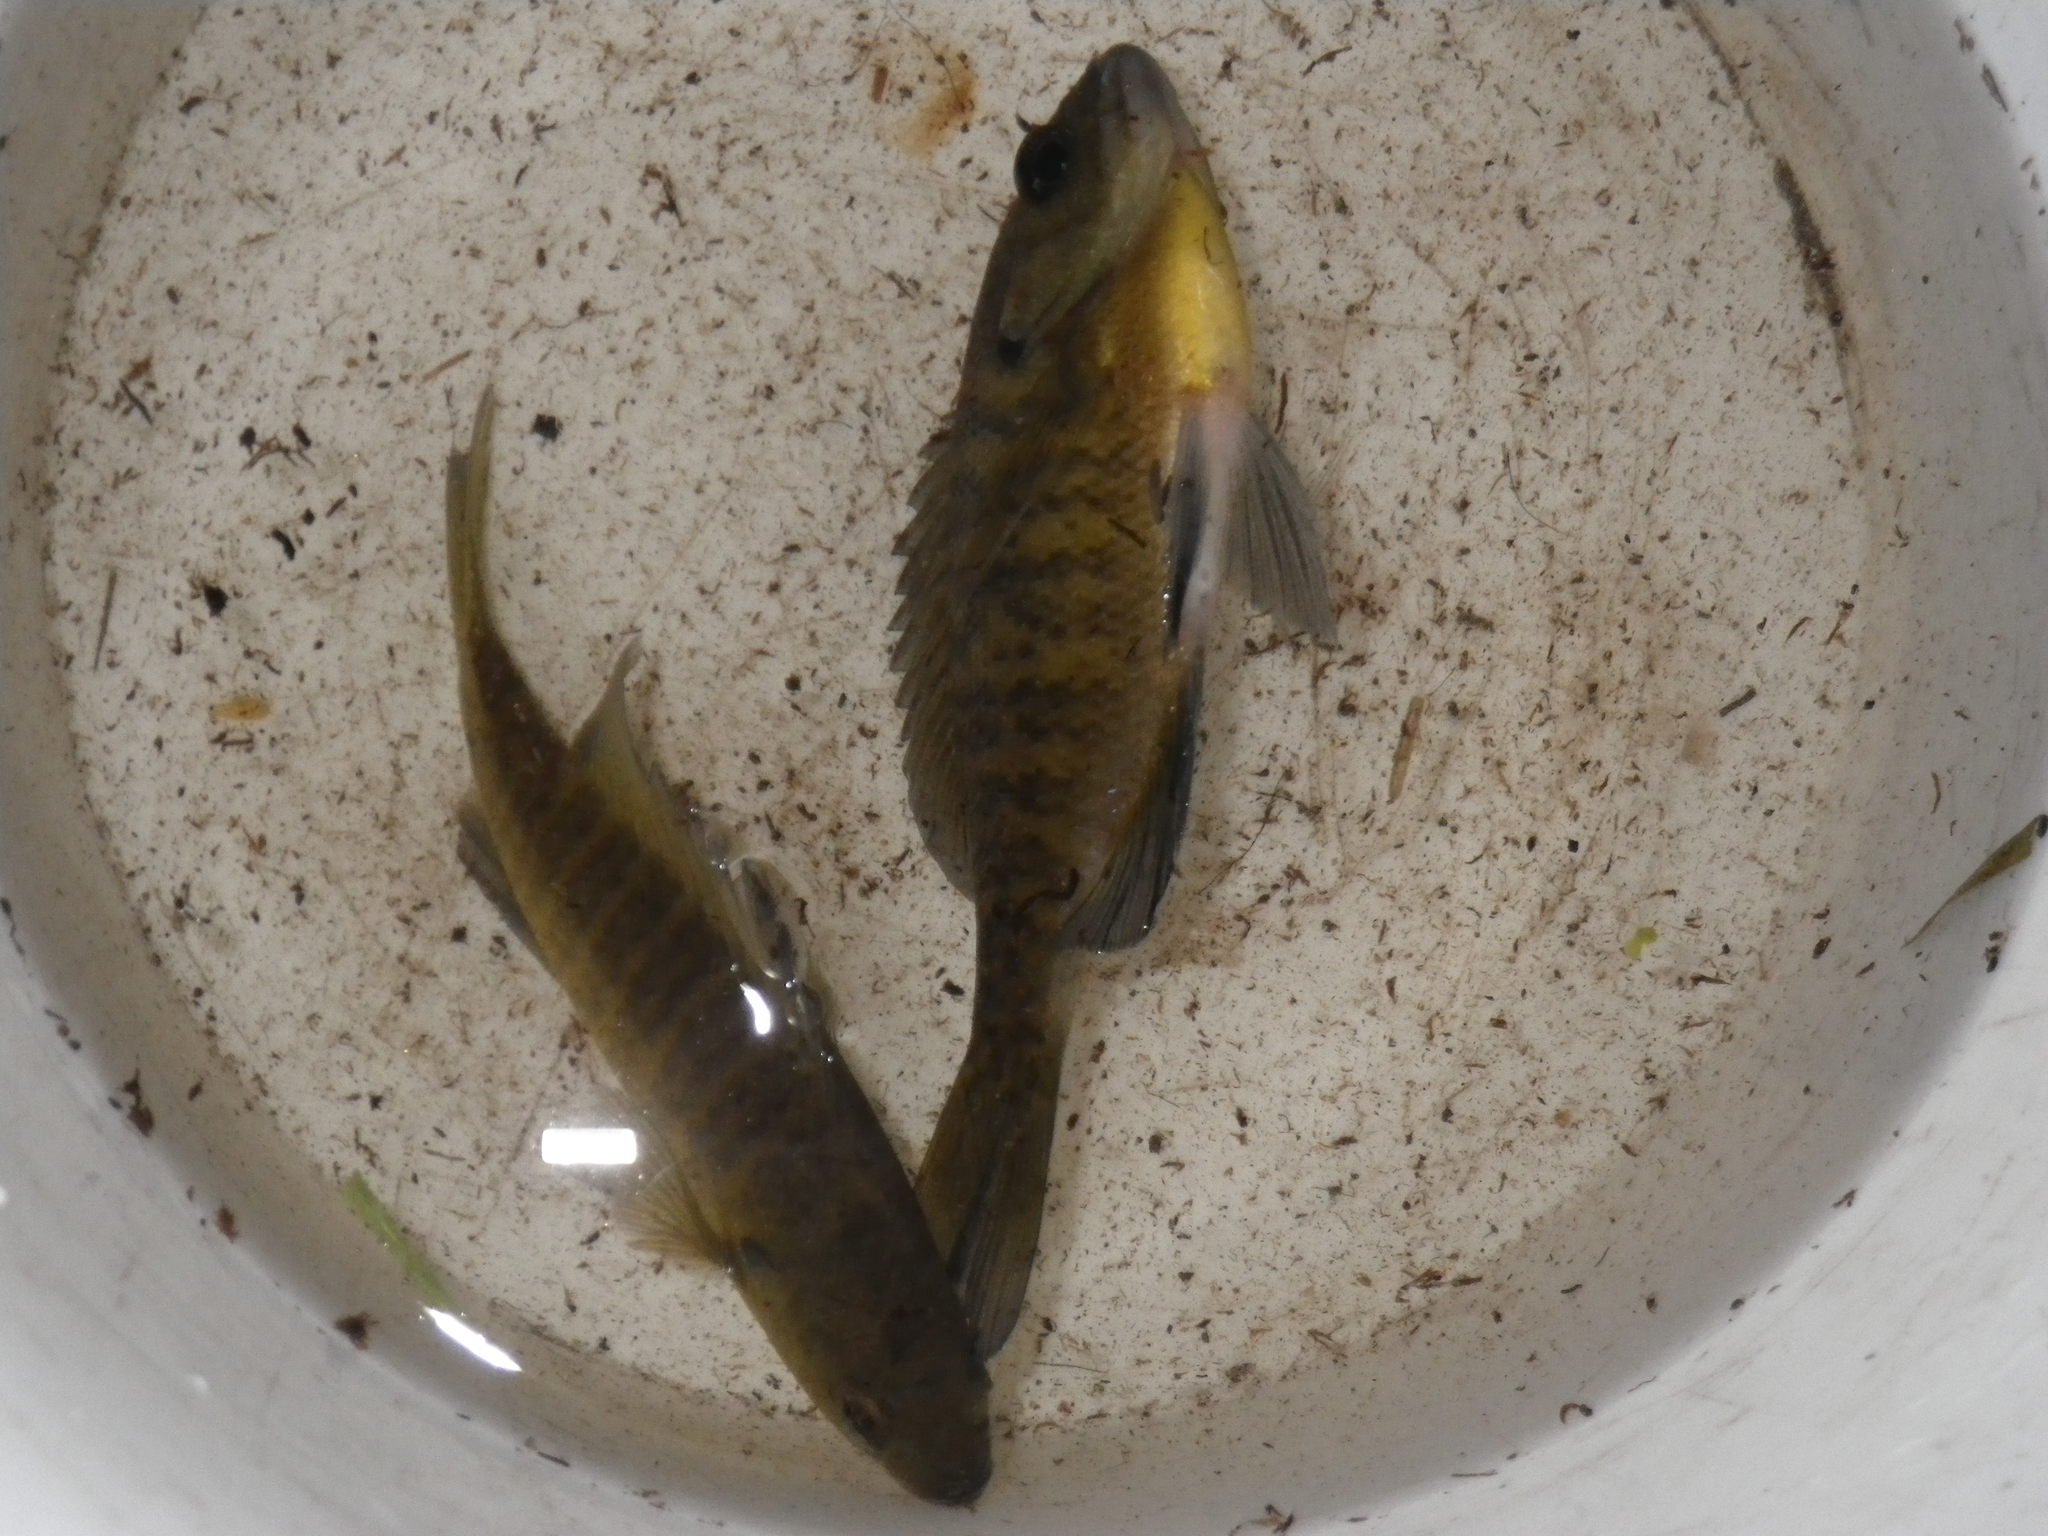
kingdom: Animalia
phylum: Chordata
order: Perciformes
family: Centrarchidae
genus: Lepomis
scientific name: Lepomis macrochirus
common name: Bluegill
